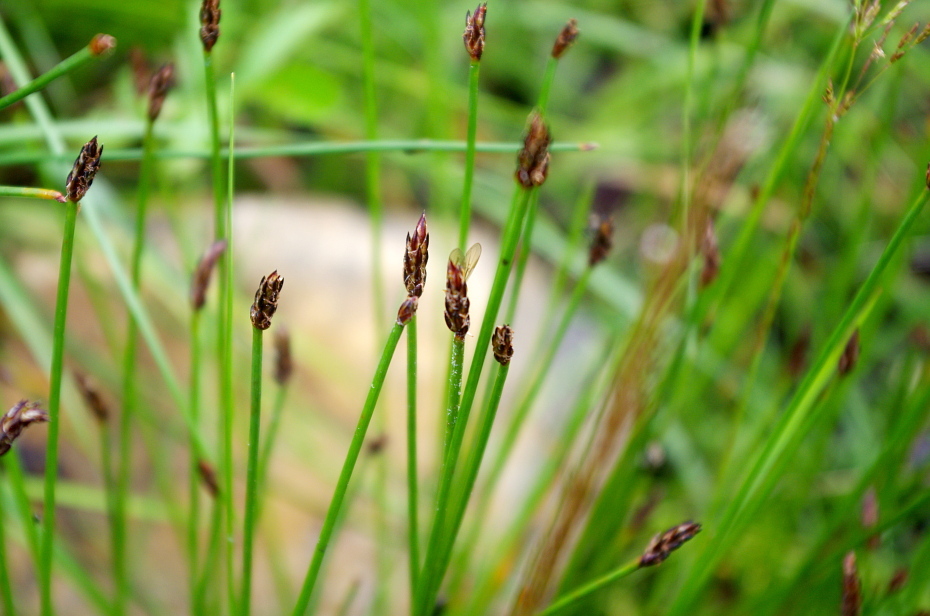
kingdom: Plantae
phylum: Tracheophyta
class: Liliopsida
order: Poales
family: Cyperaceae
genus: Eleocharis
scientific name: Eleocharis palustris
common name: Common spike-rush
